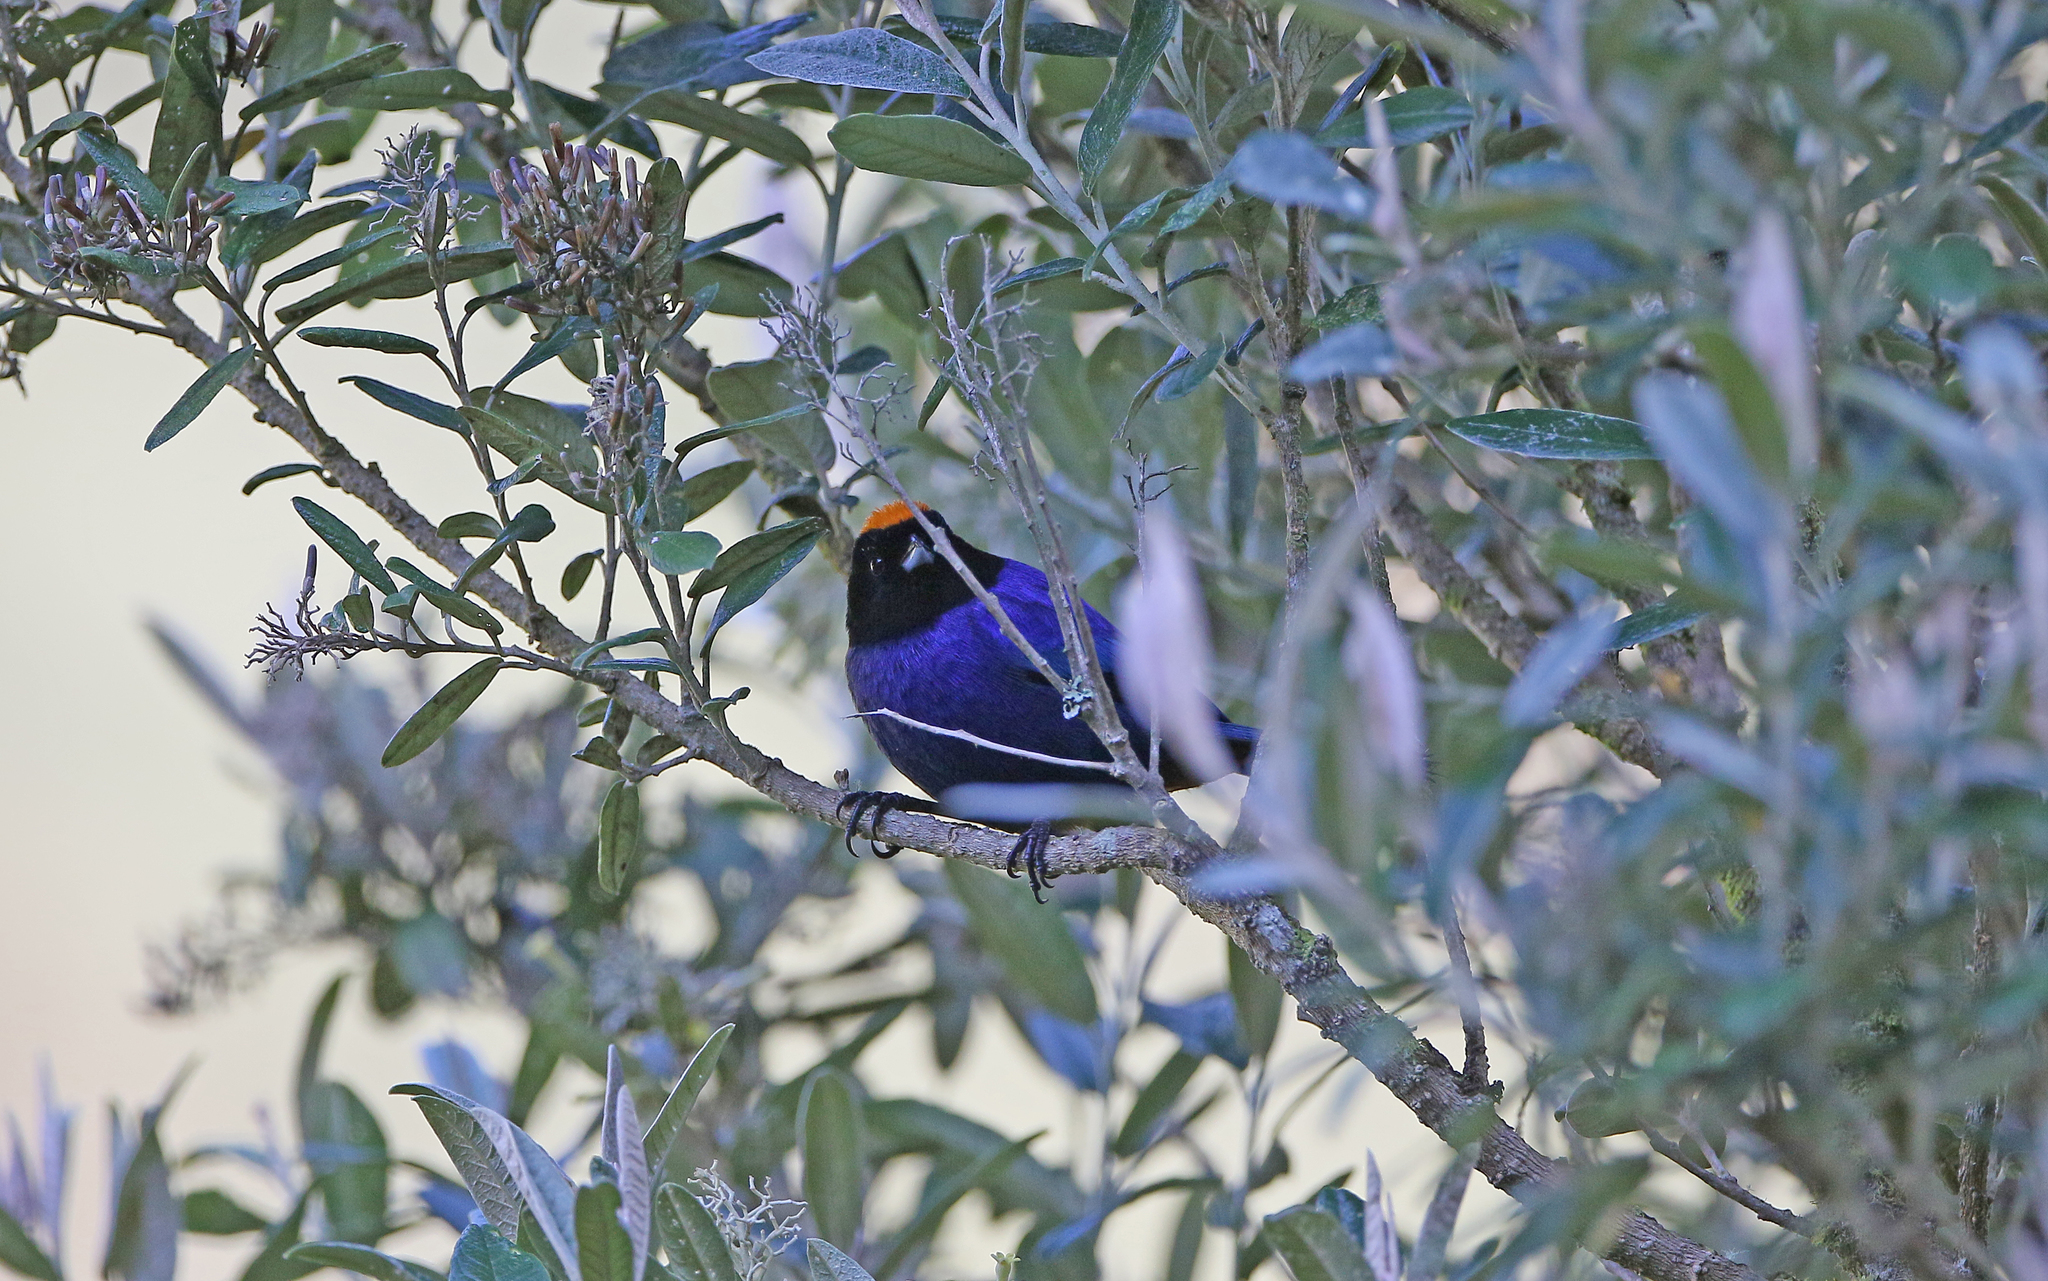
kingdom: Animalia
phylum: Chordata
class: Aves
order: Passeriformes
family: Thraupidae
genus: Iridosornis
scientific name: Iridosornis rufivertex
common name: Golden-crowned tanager
